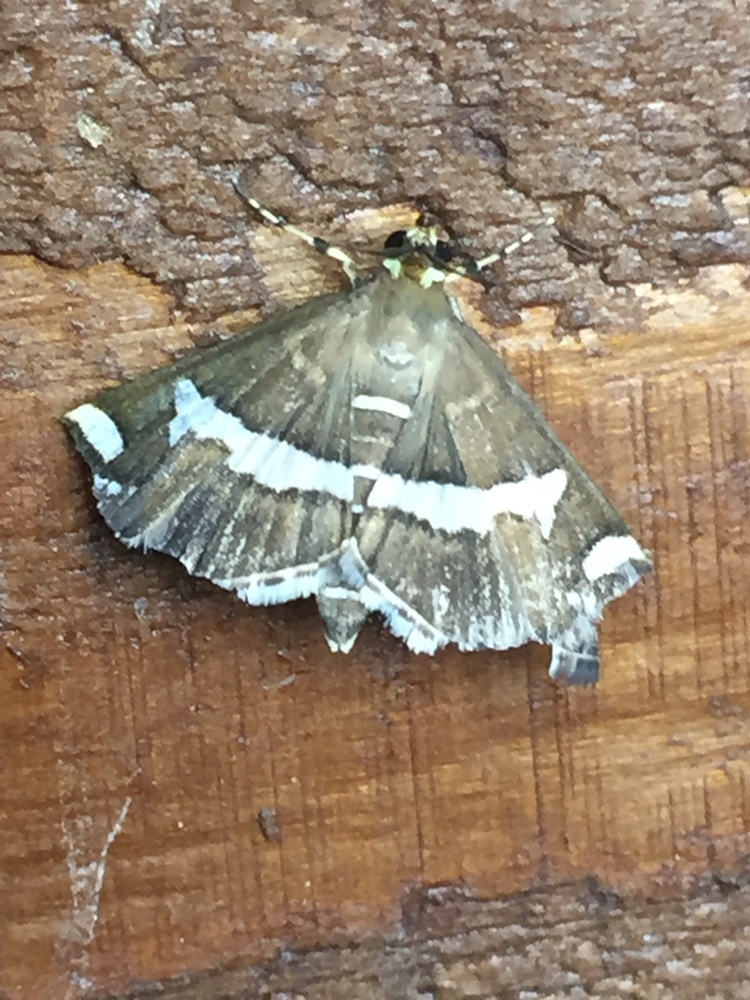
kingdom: Animalia
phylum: Arthropoda
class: Insecta
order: Lepidoptera
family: Crambidae
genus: Spoladea
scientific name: Spoladea recurvalis
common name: Beet webworm moth
